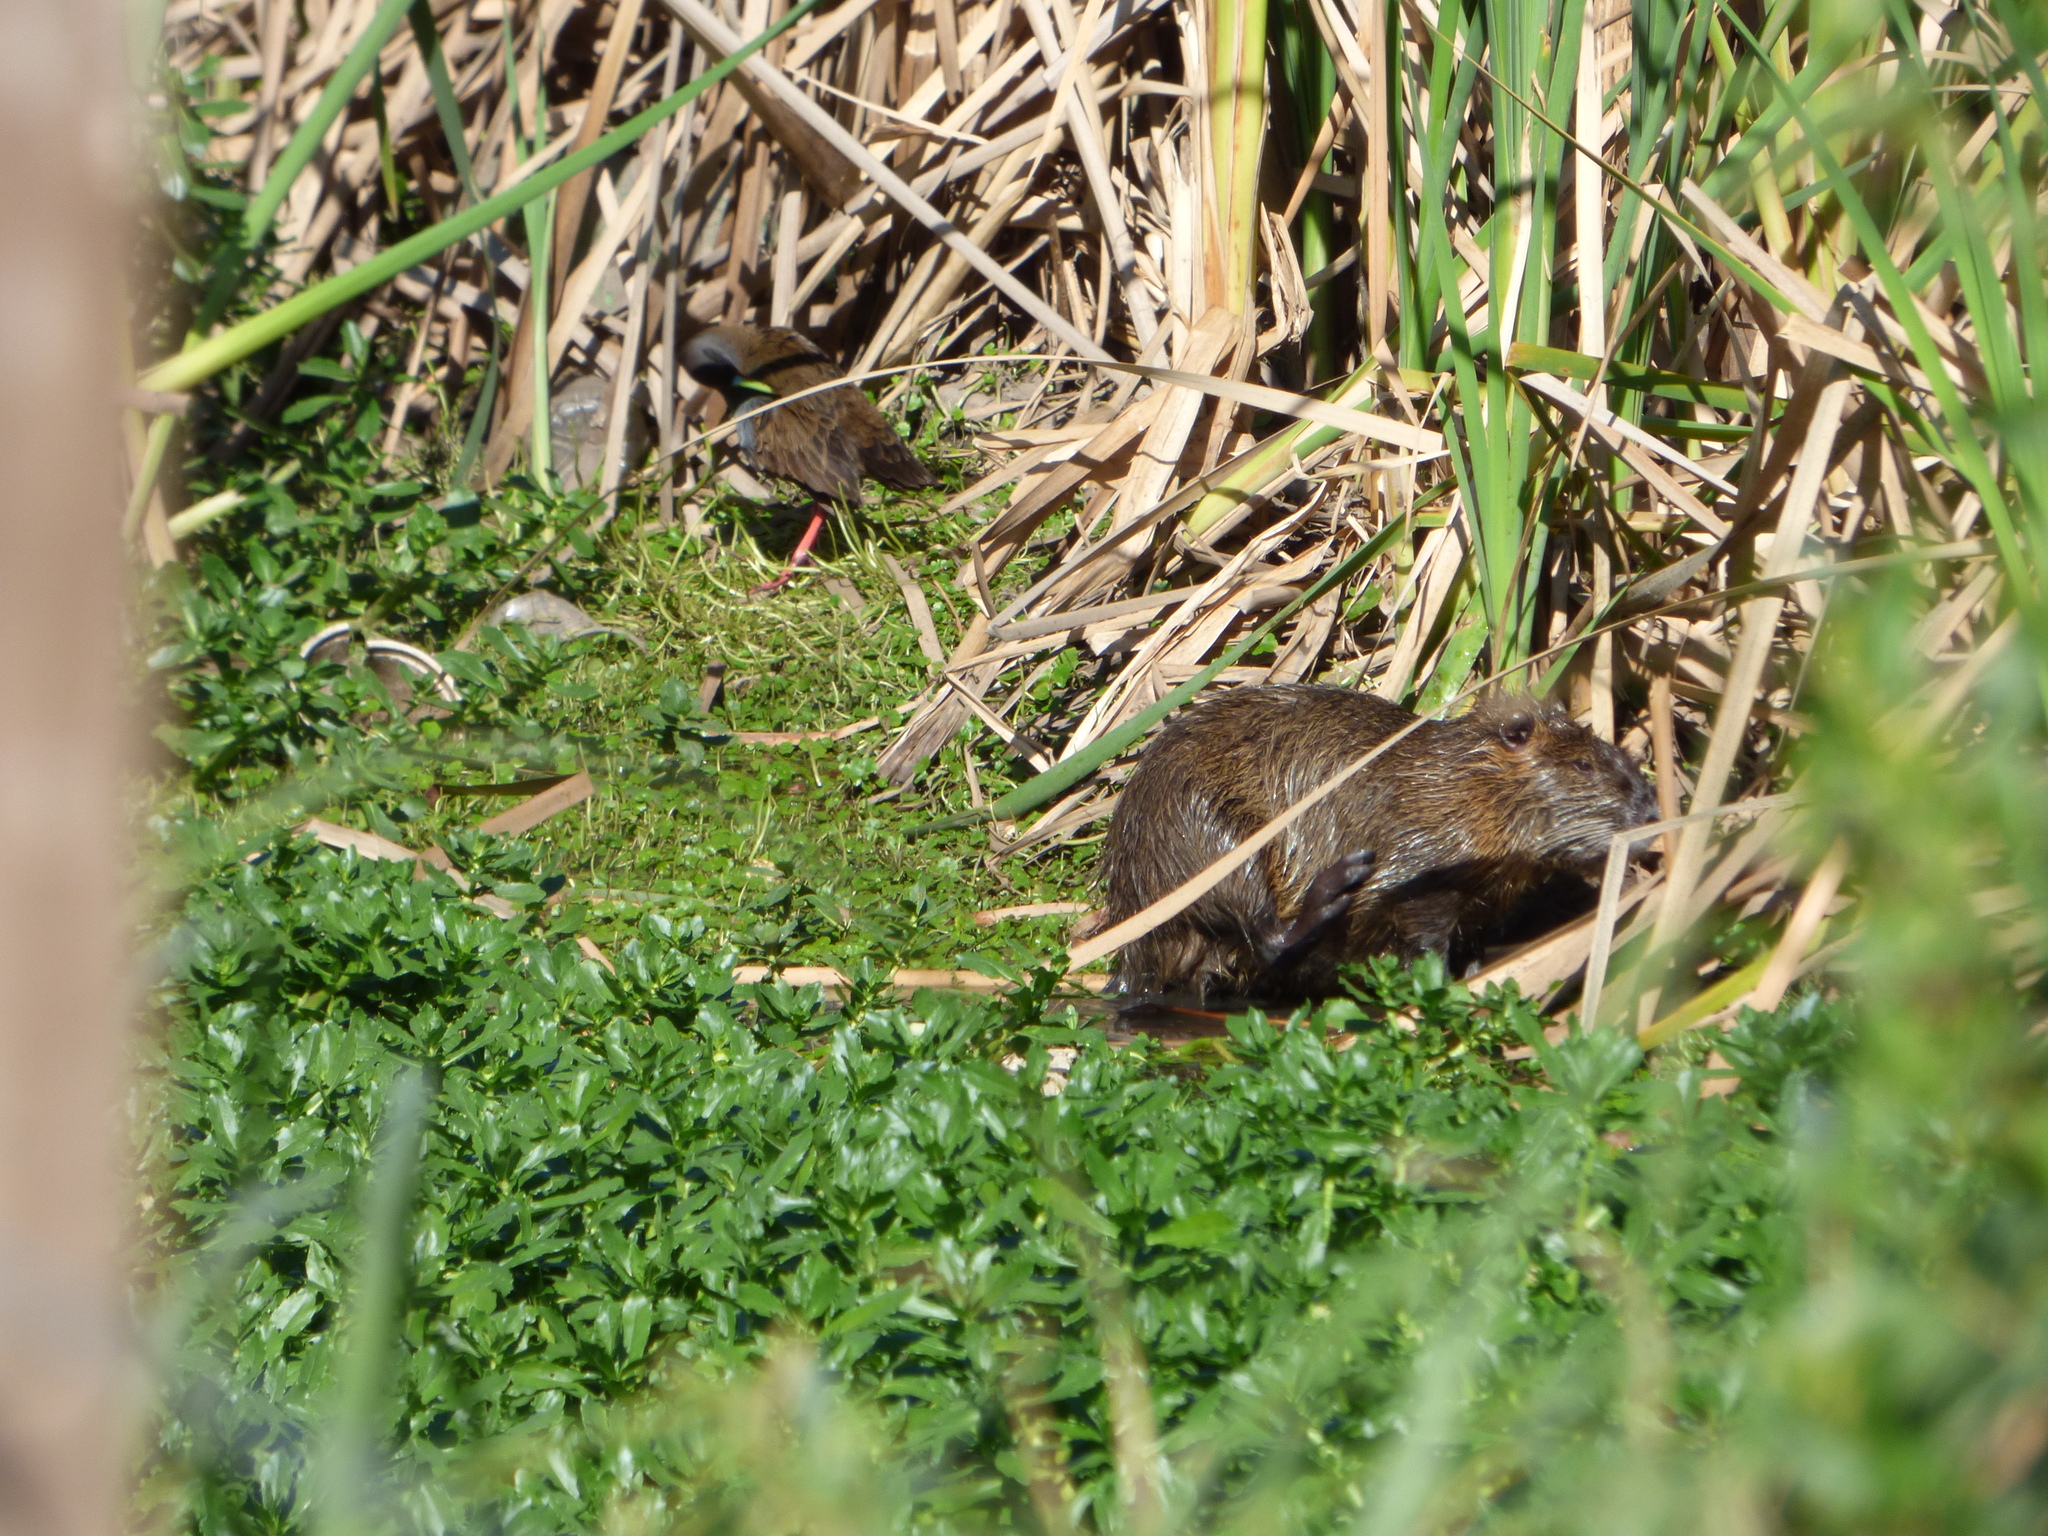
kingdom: Animalia
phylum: Chordata
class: Mammalia
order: Rodentia
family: Myocastoridae
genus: Myocastor
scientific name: Myocastor coypus
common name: Coypu
